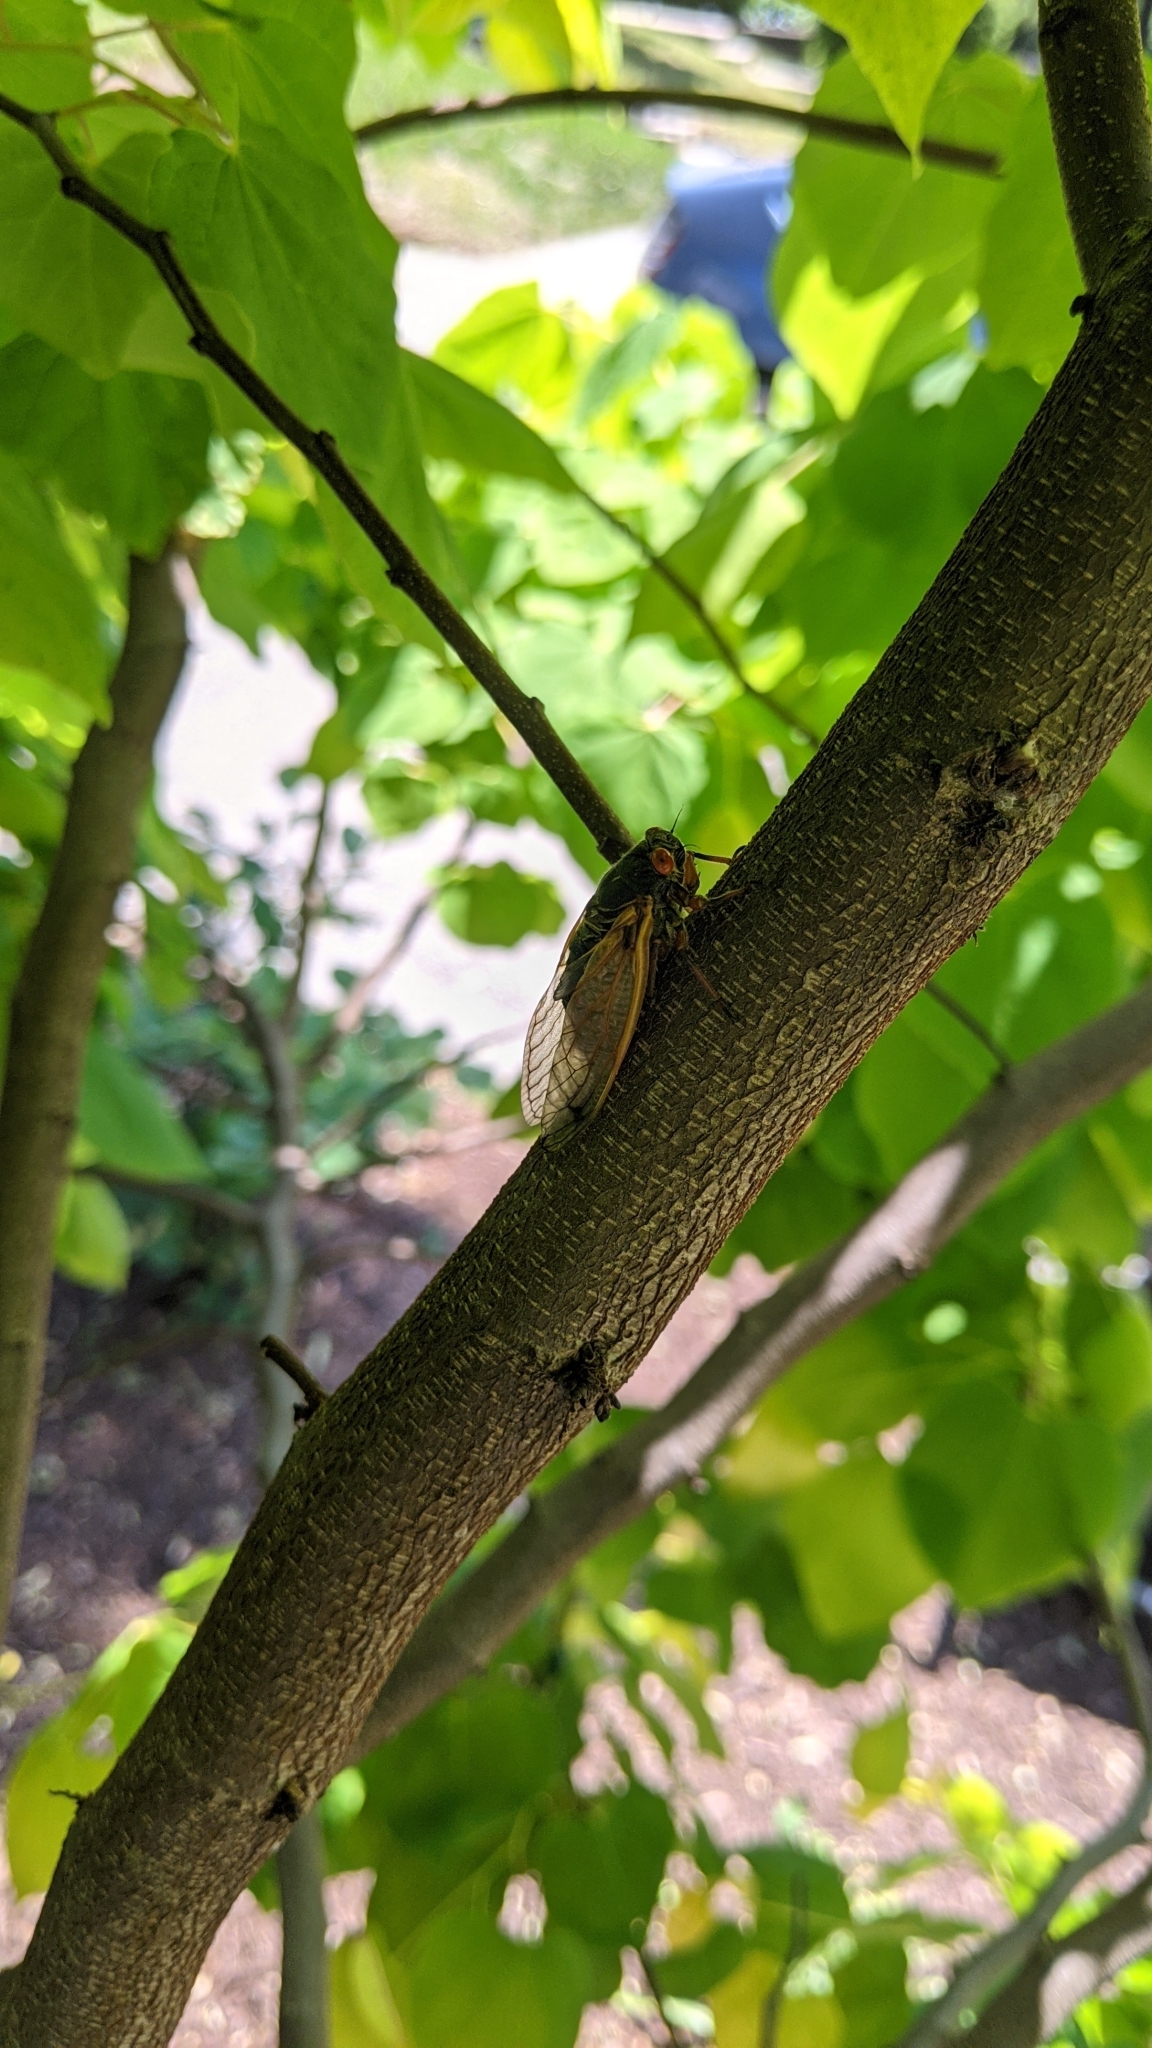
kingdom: Animalia
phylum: Arthropoda
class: Insecta
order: Hemiptera
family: Cicadidae
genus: Magicicada
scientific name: Magicicada
